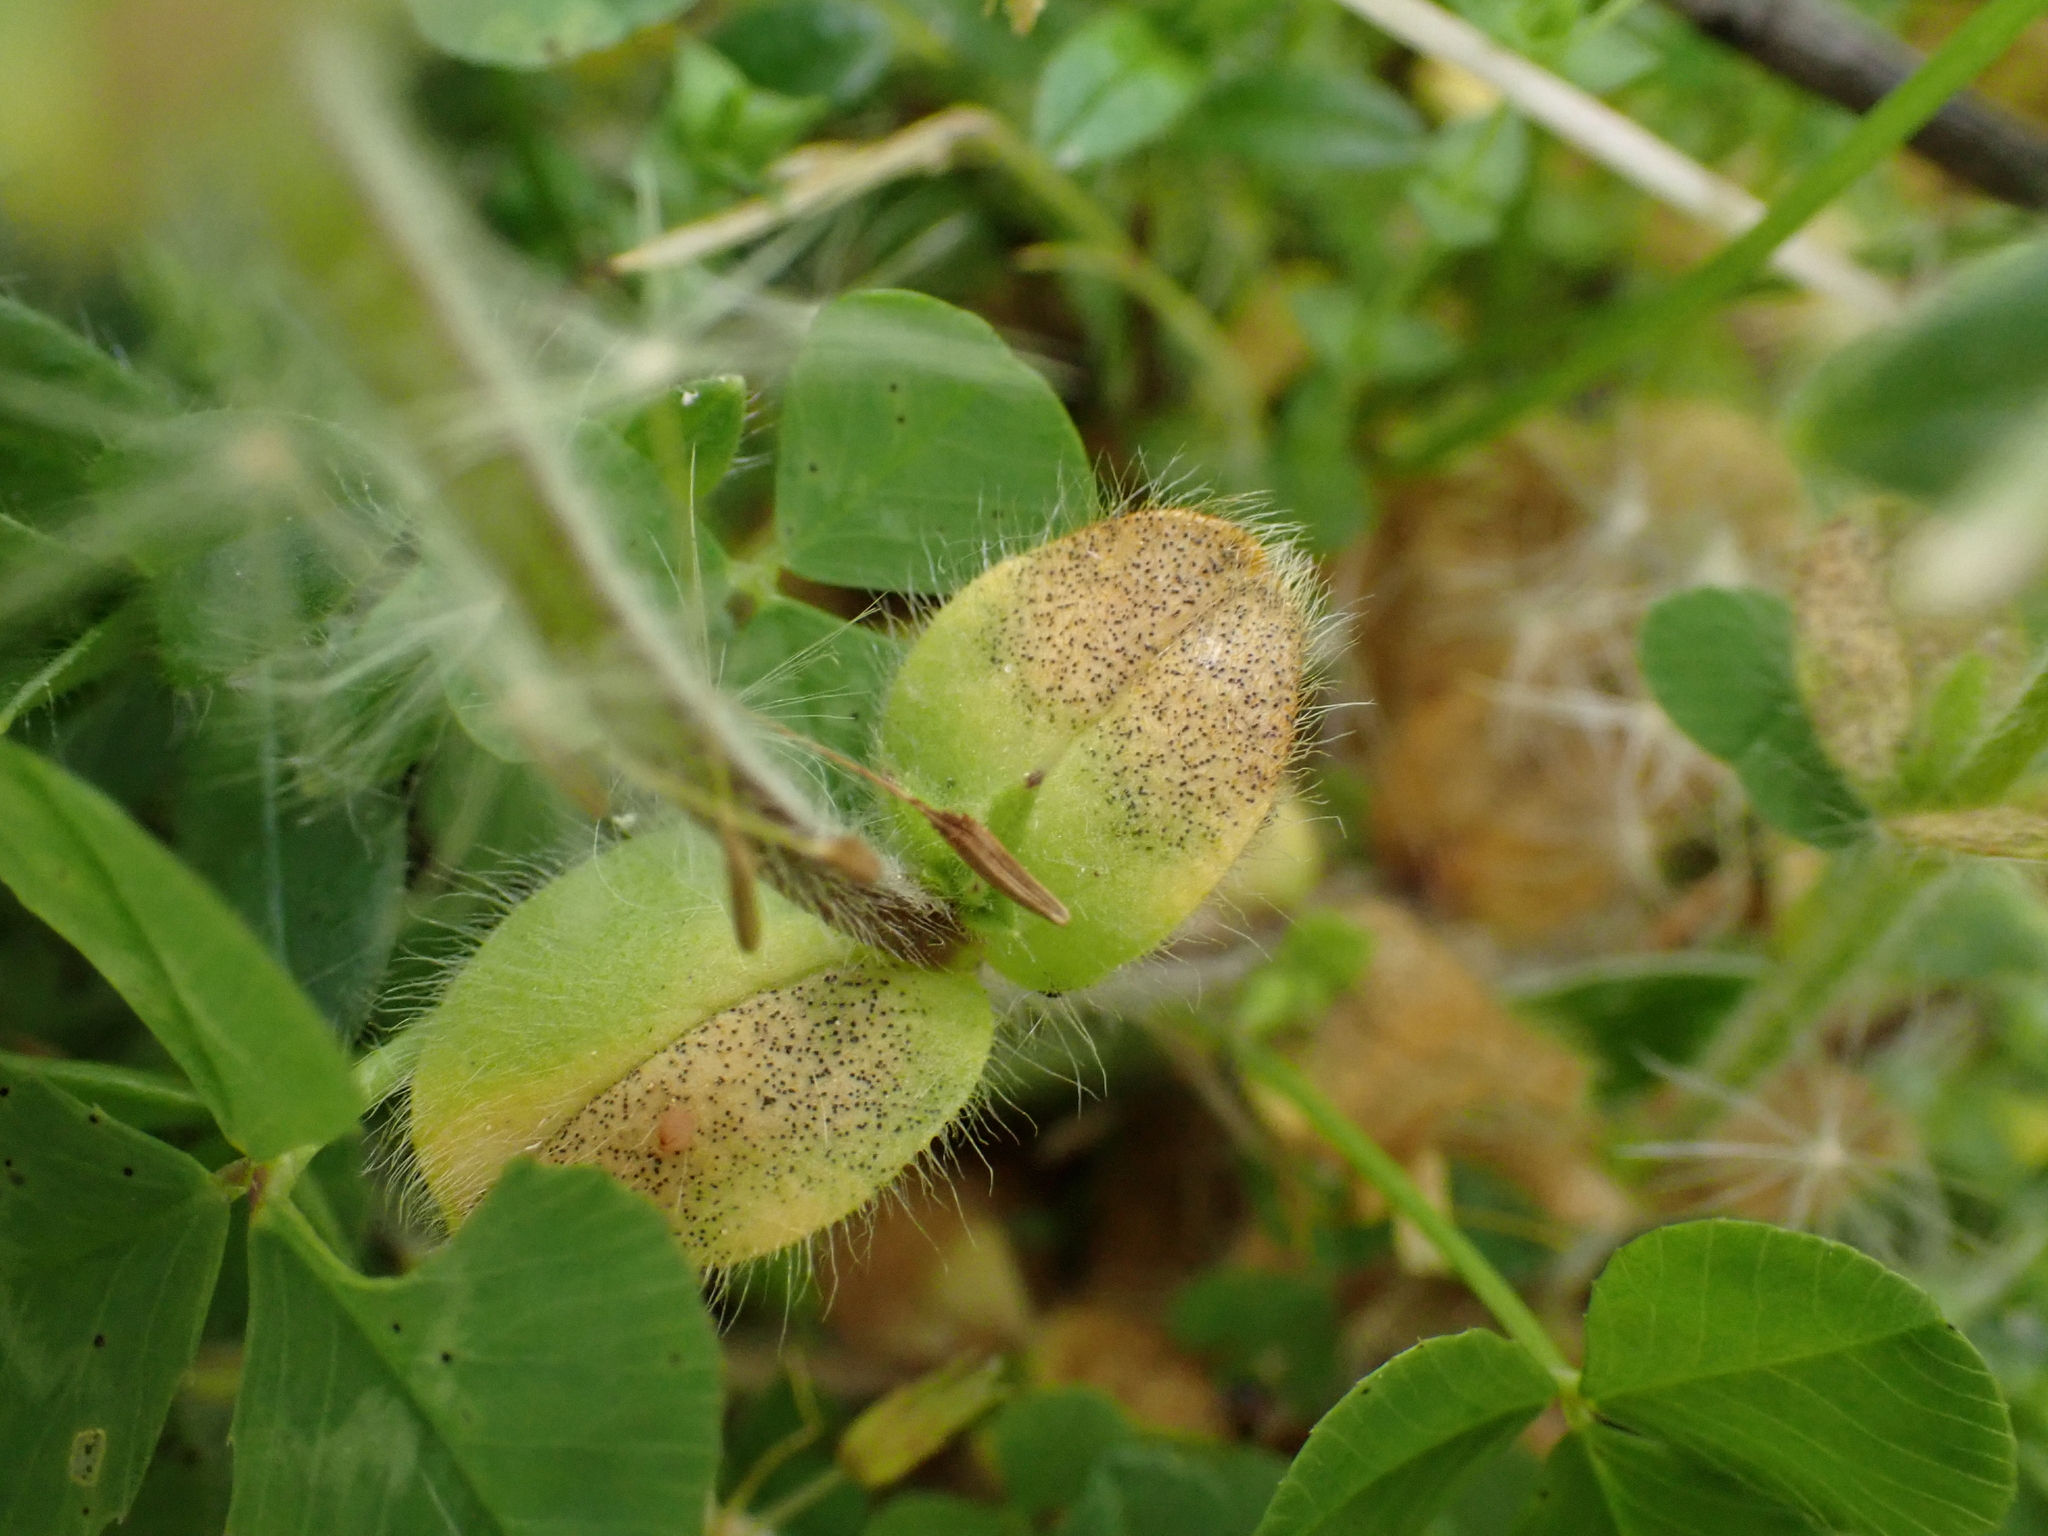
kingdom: Fungi
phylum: Ascomycota
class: Dothideomycetes
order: Mycosphaerellales
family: Mycosphaerellaceae
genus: Septoria
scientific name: Septoria cerastii
